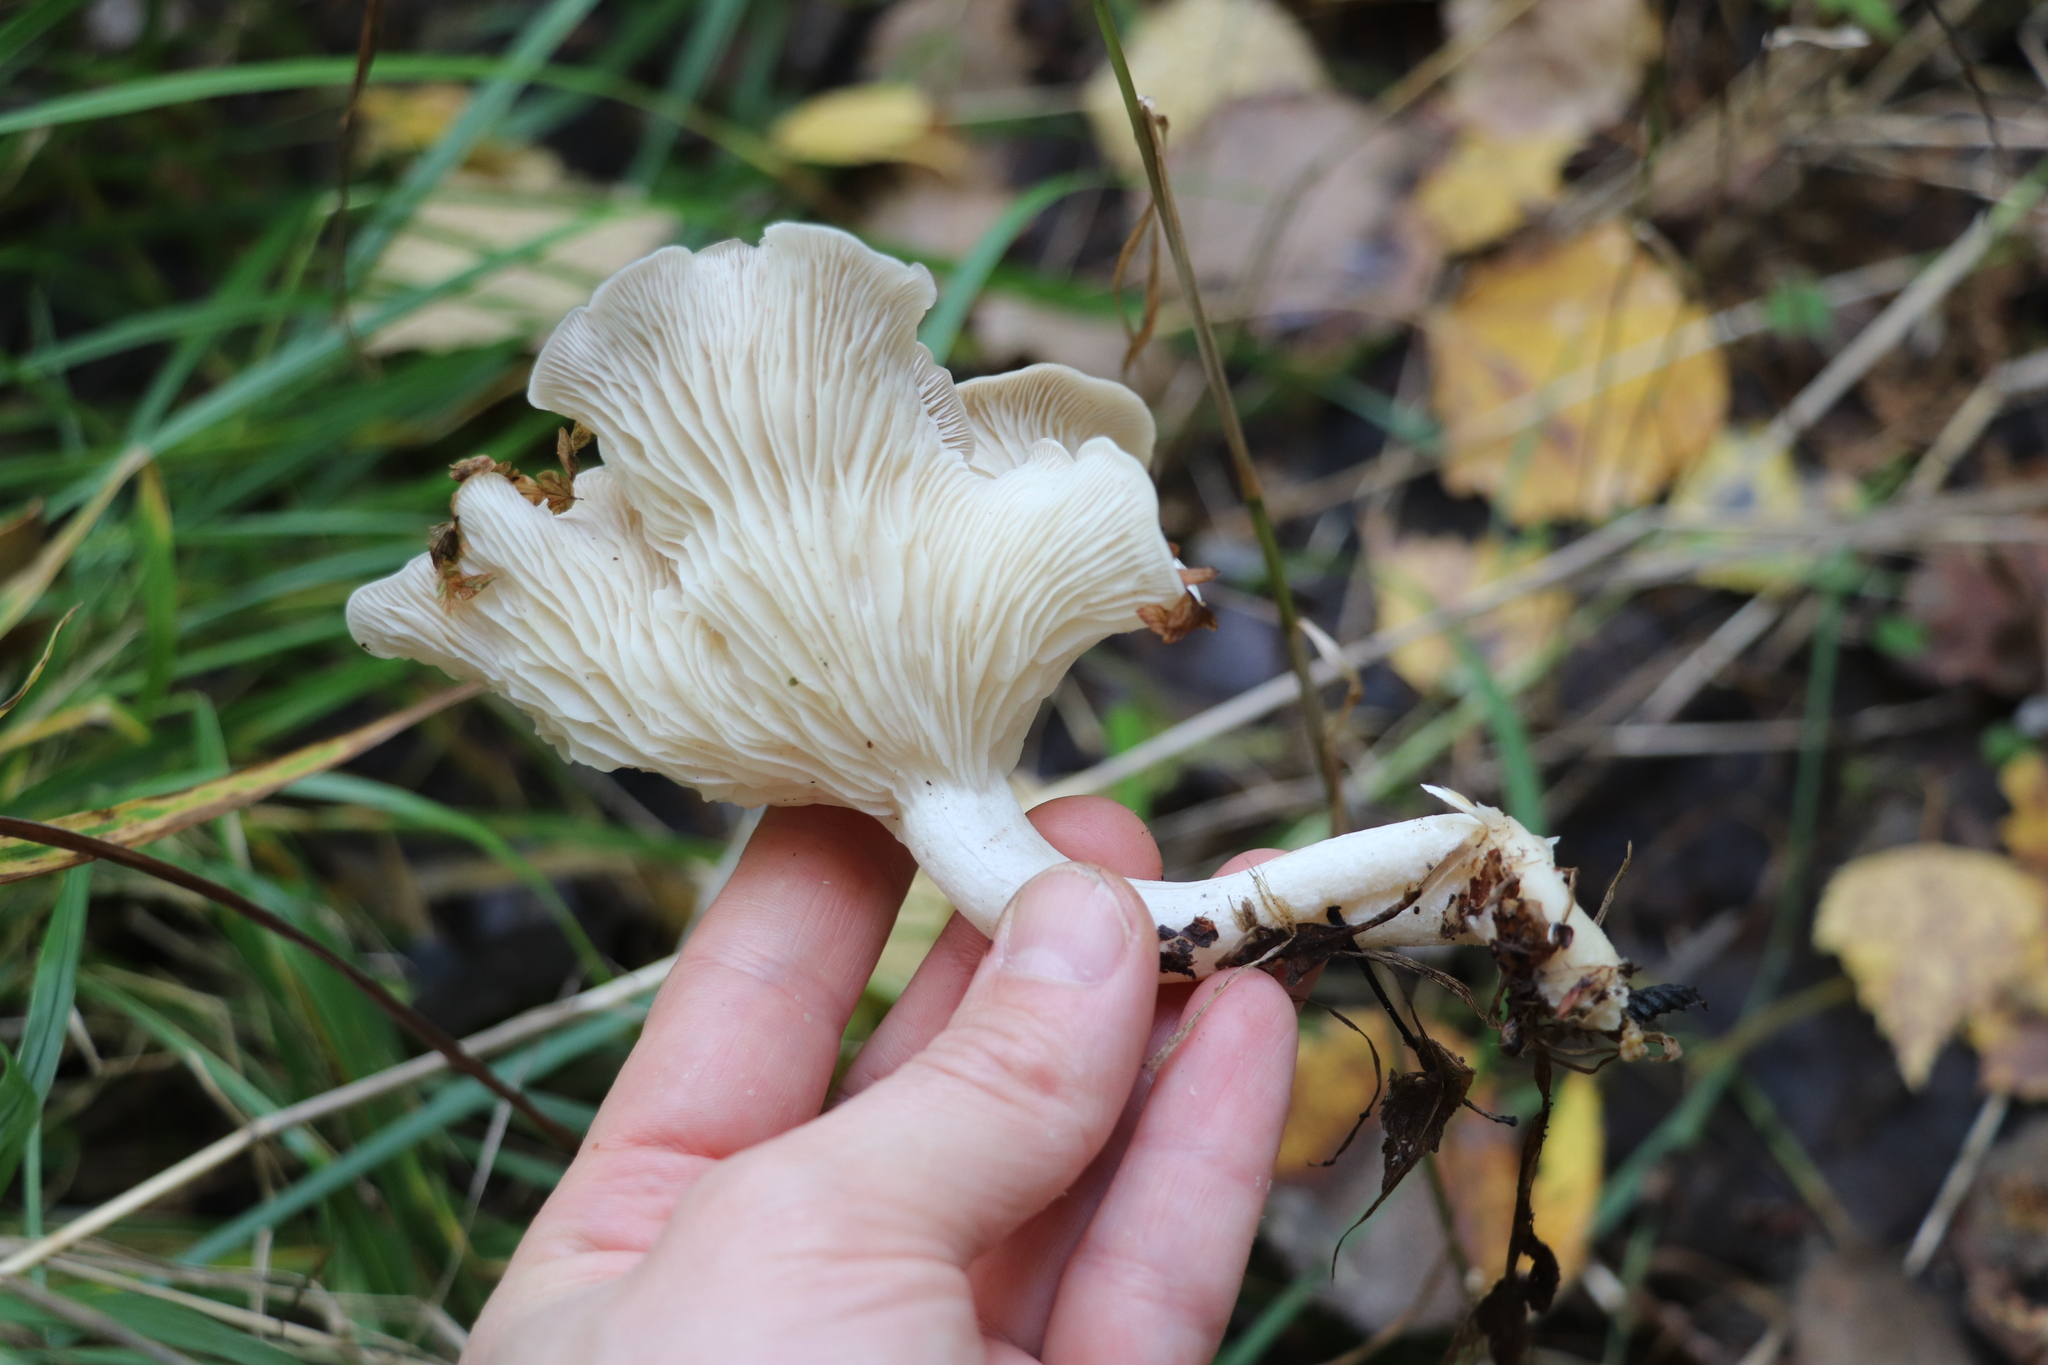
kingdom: Fungi
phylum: Basidiomycota
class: Agaricomycetes
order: Agaricales
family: Tricholomataceae
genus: Leucocybe
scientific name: Leucocybe connata
